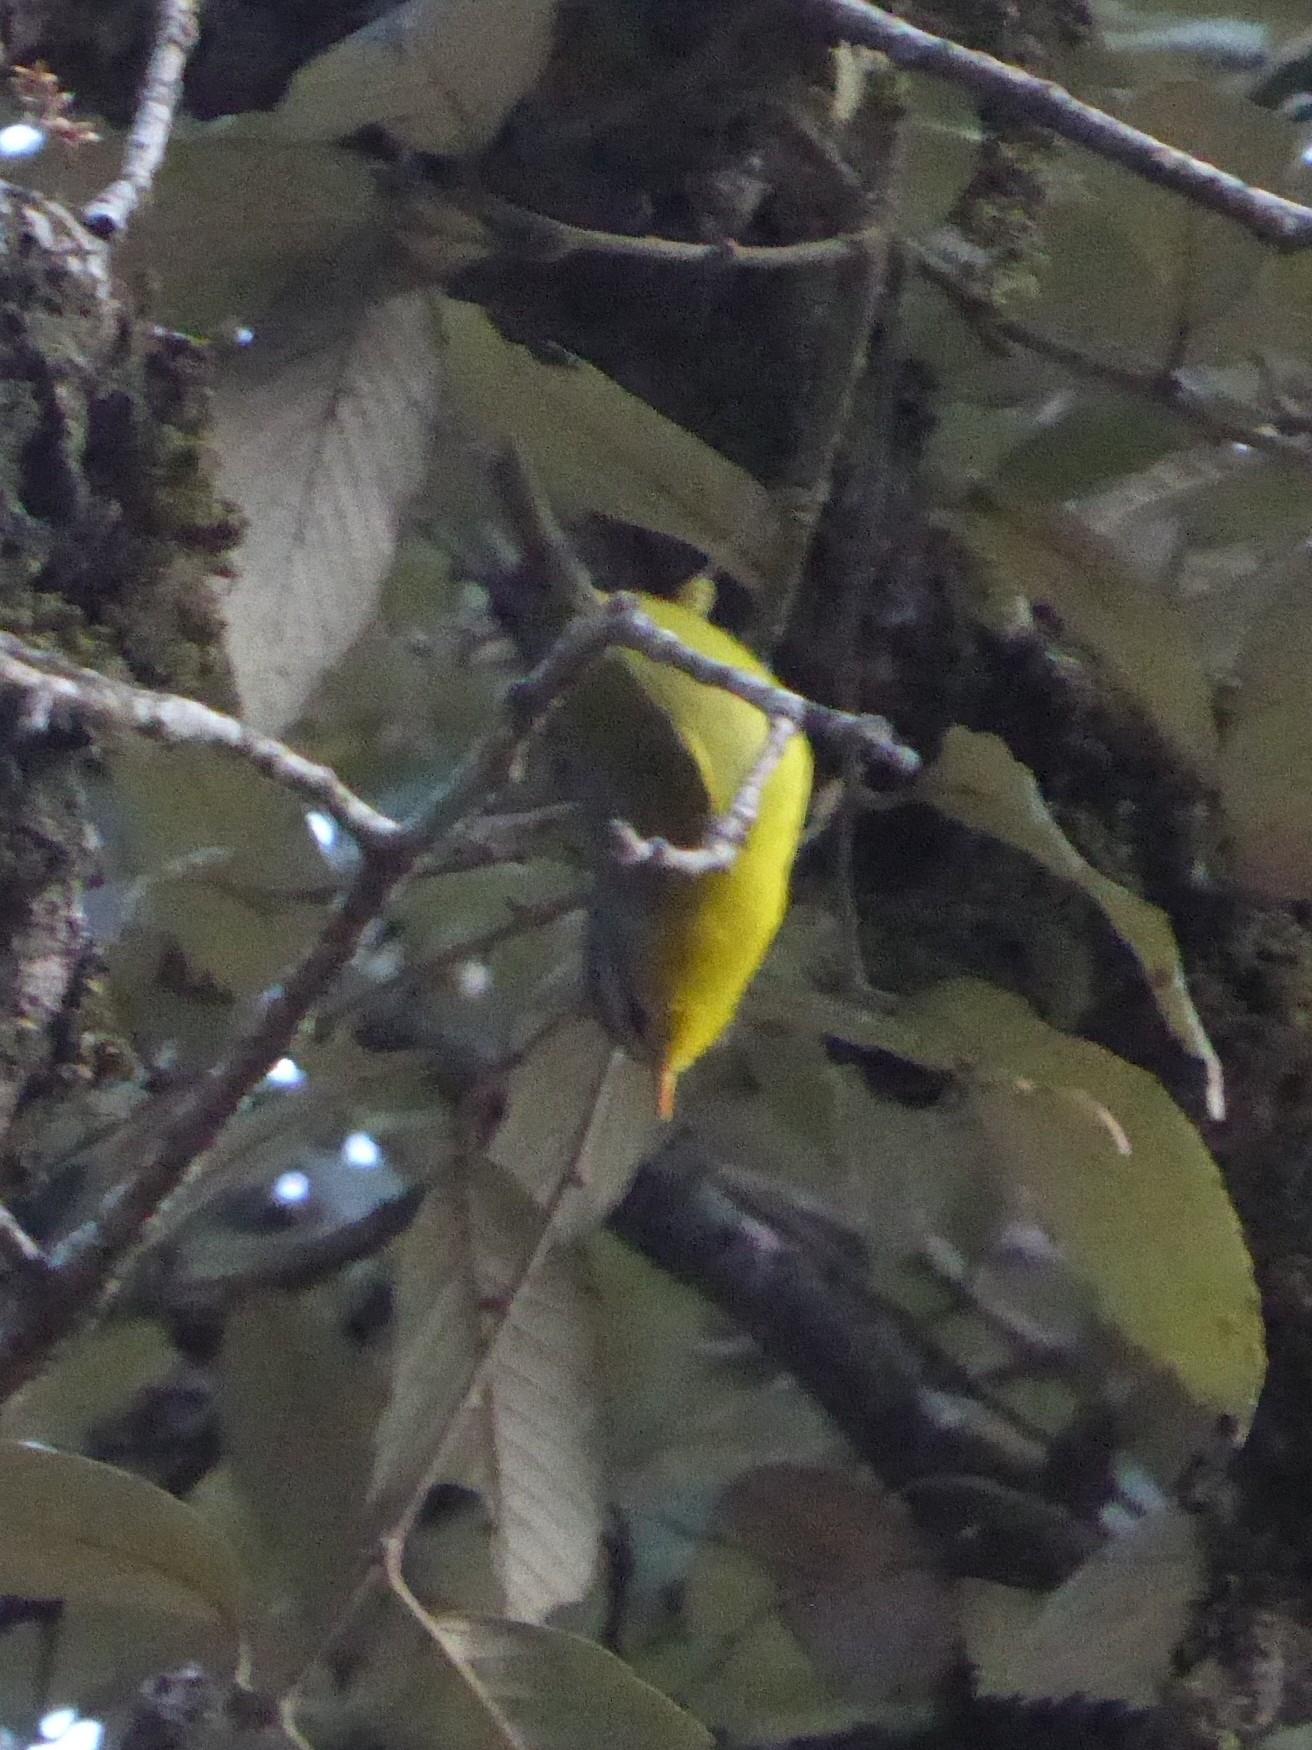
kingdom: Animalia
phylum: Chordata
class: Aves
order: Passeriformes
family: Phylloscopidae
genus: Phylloscopus
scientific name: Phylloscopus xanthoschistos
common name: Grey-hooded warbler
